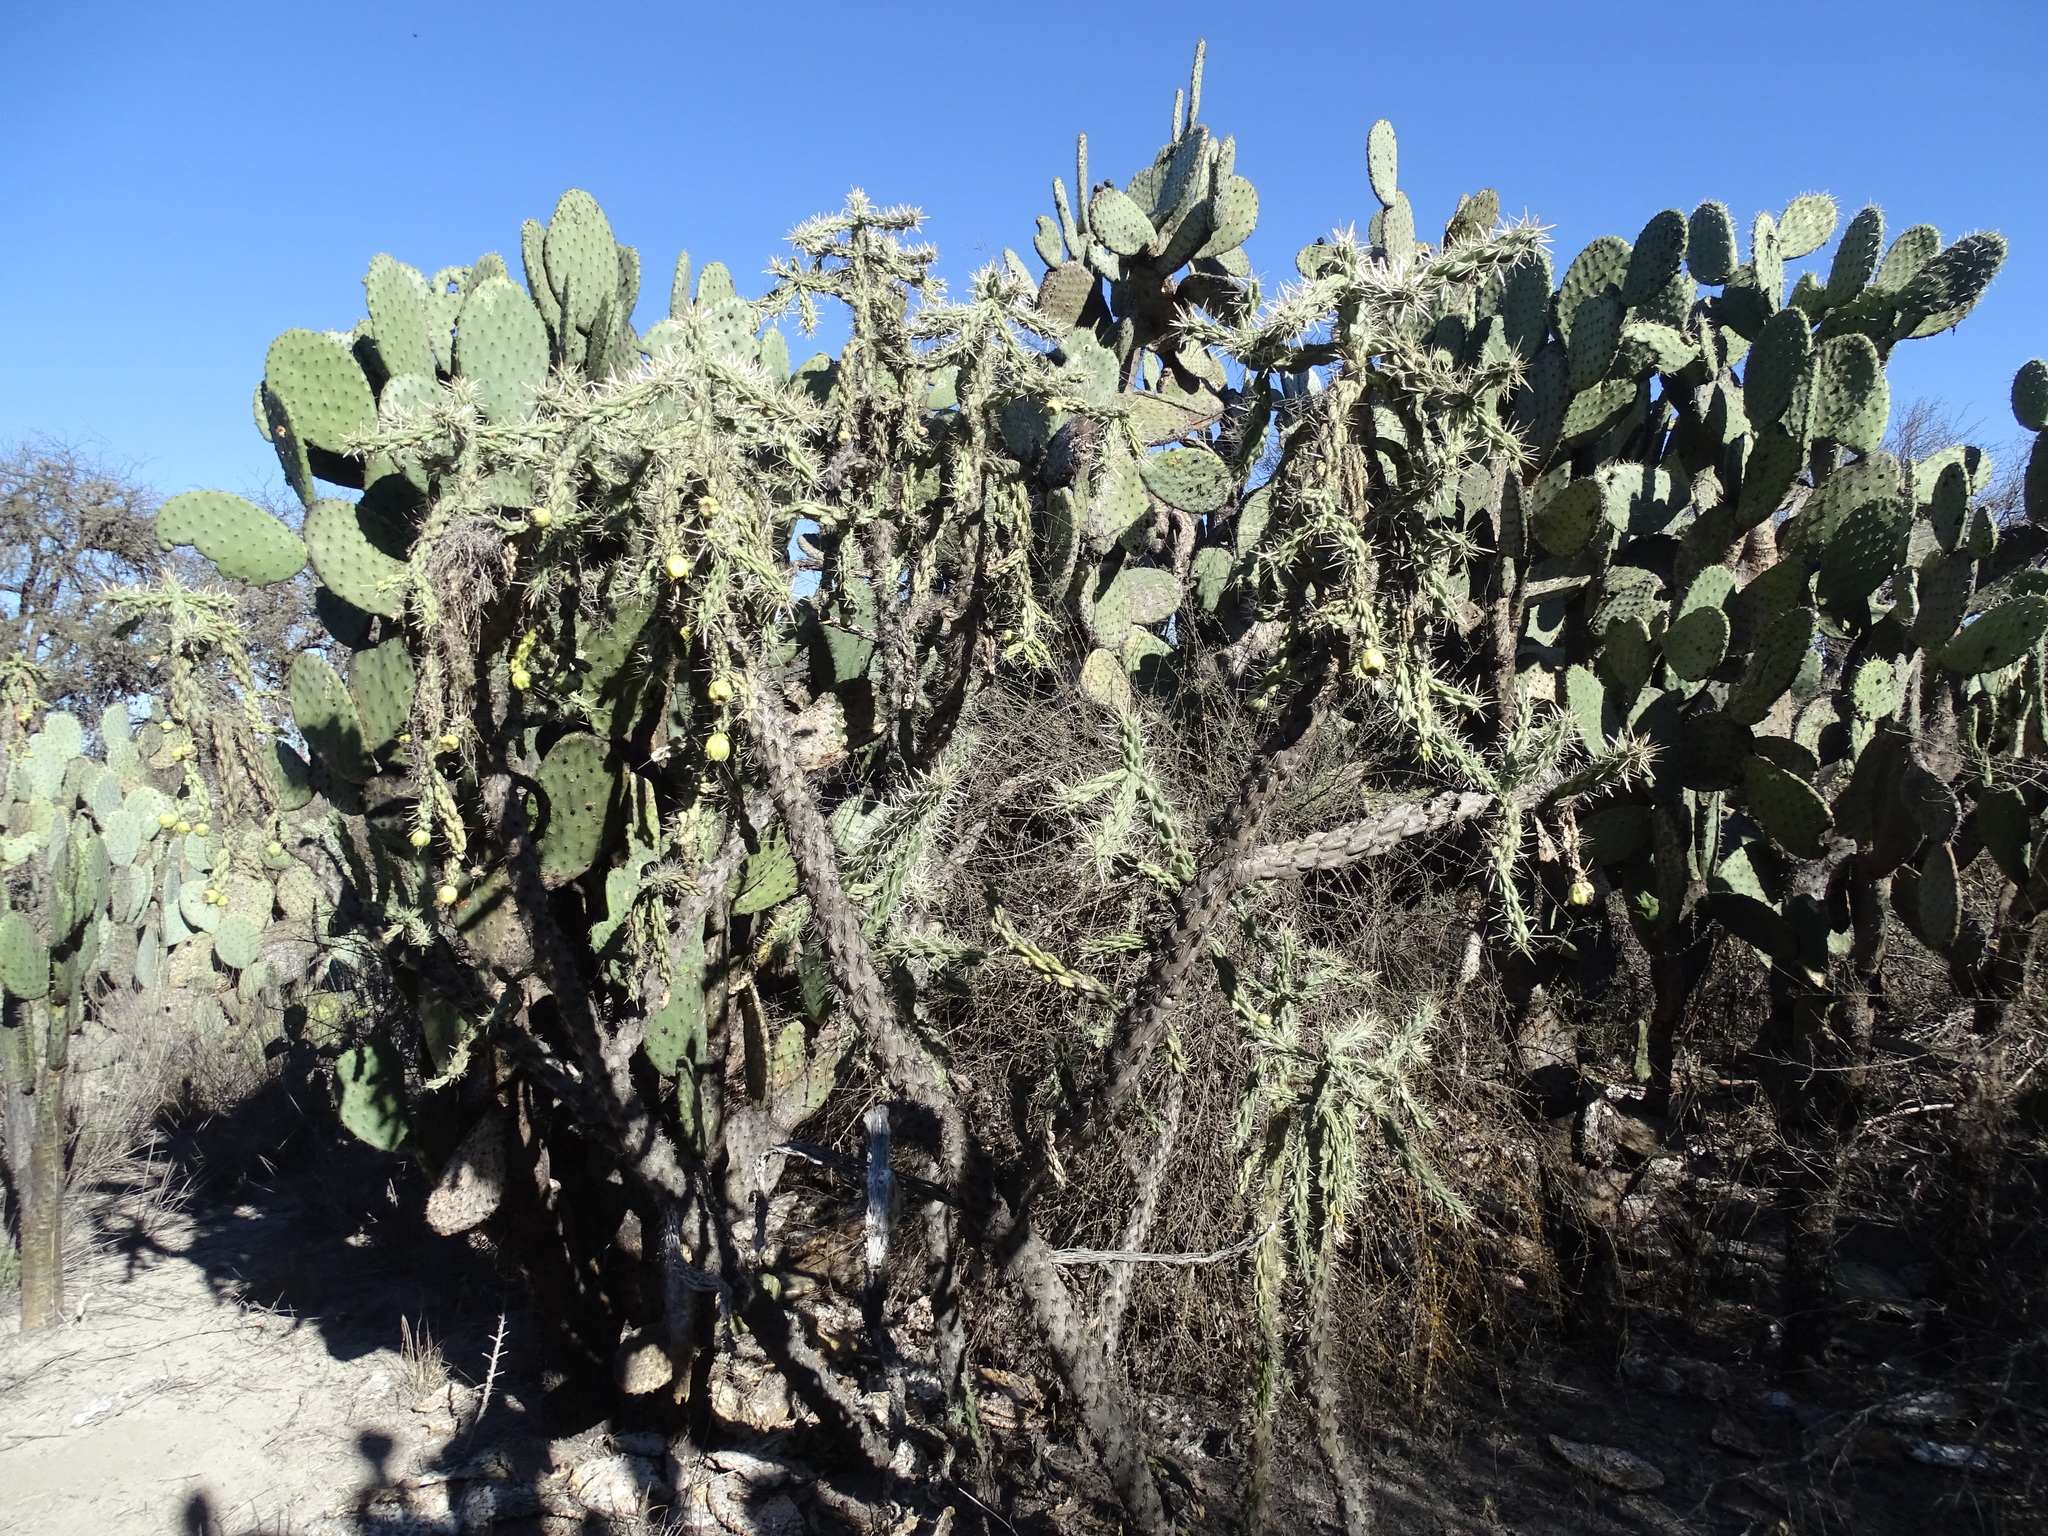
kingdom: Plantae
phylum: Tracheophyta
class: Magnoliopsida
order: Caryophyllales
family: Cactaceae
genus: Cylindropuntia
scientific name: Cylindropuntia imbricata
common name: Candelabrum cactus
